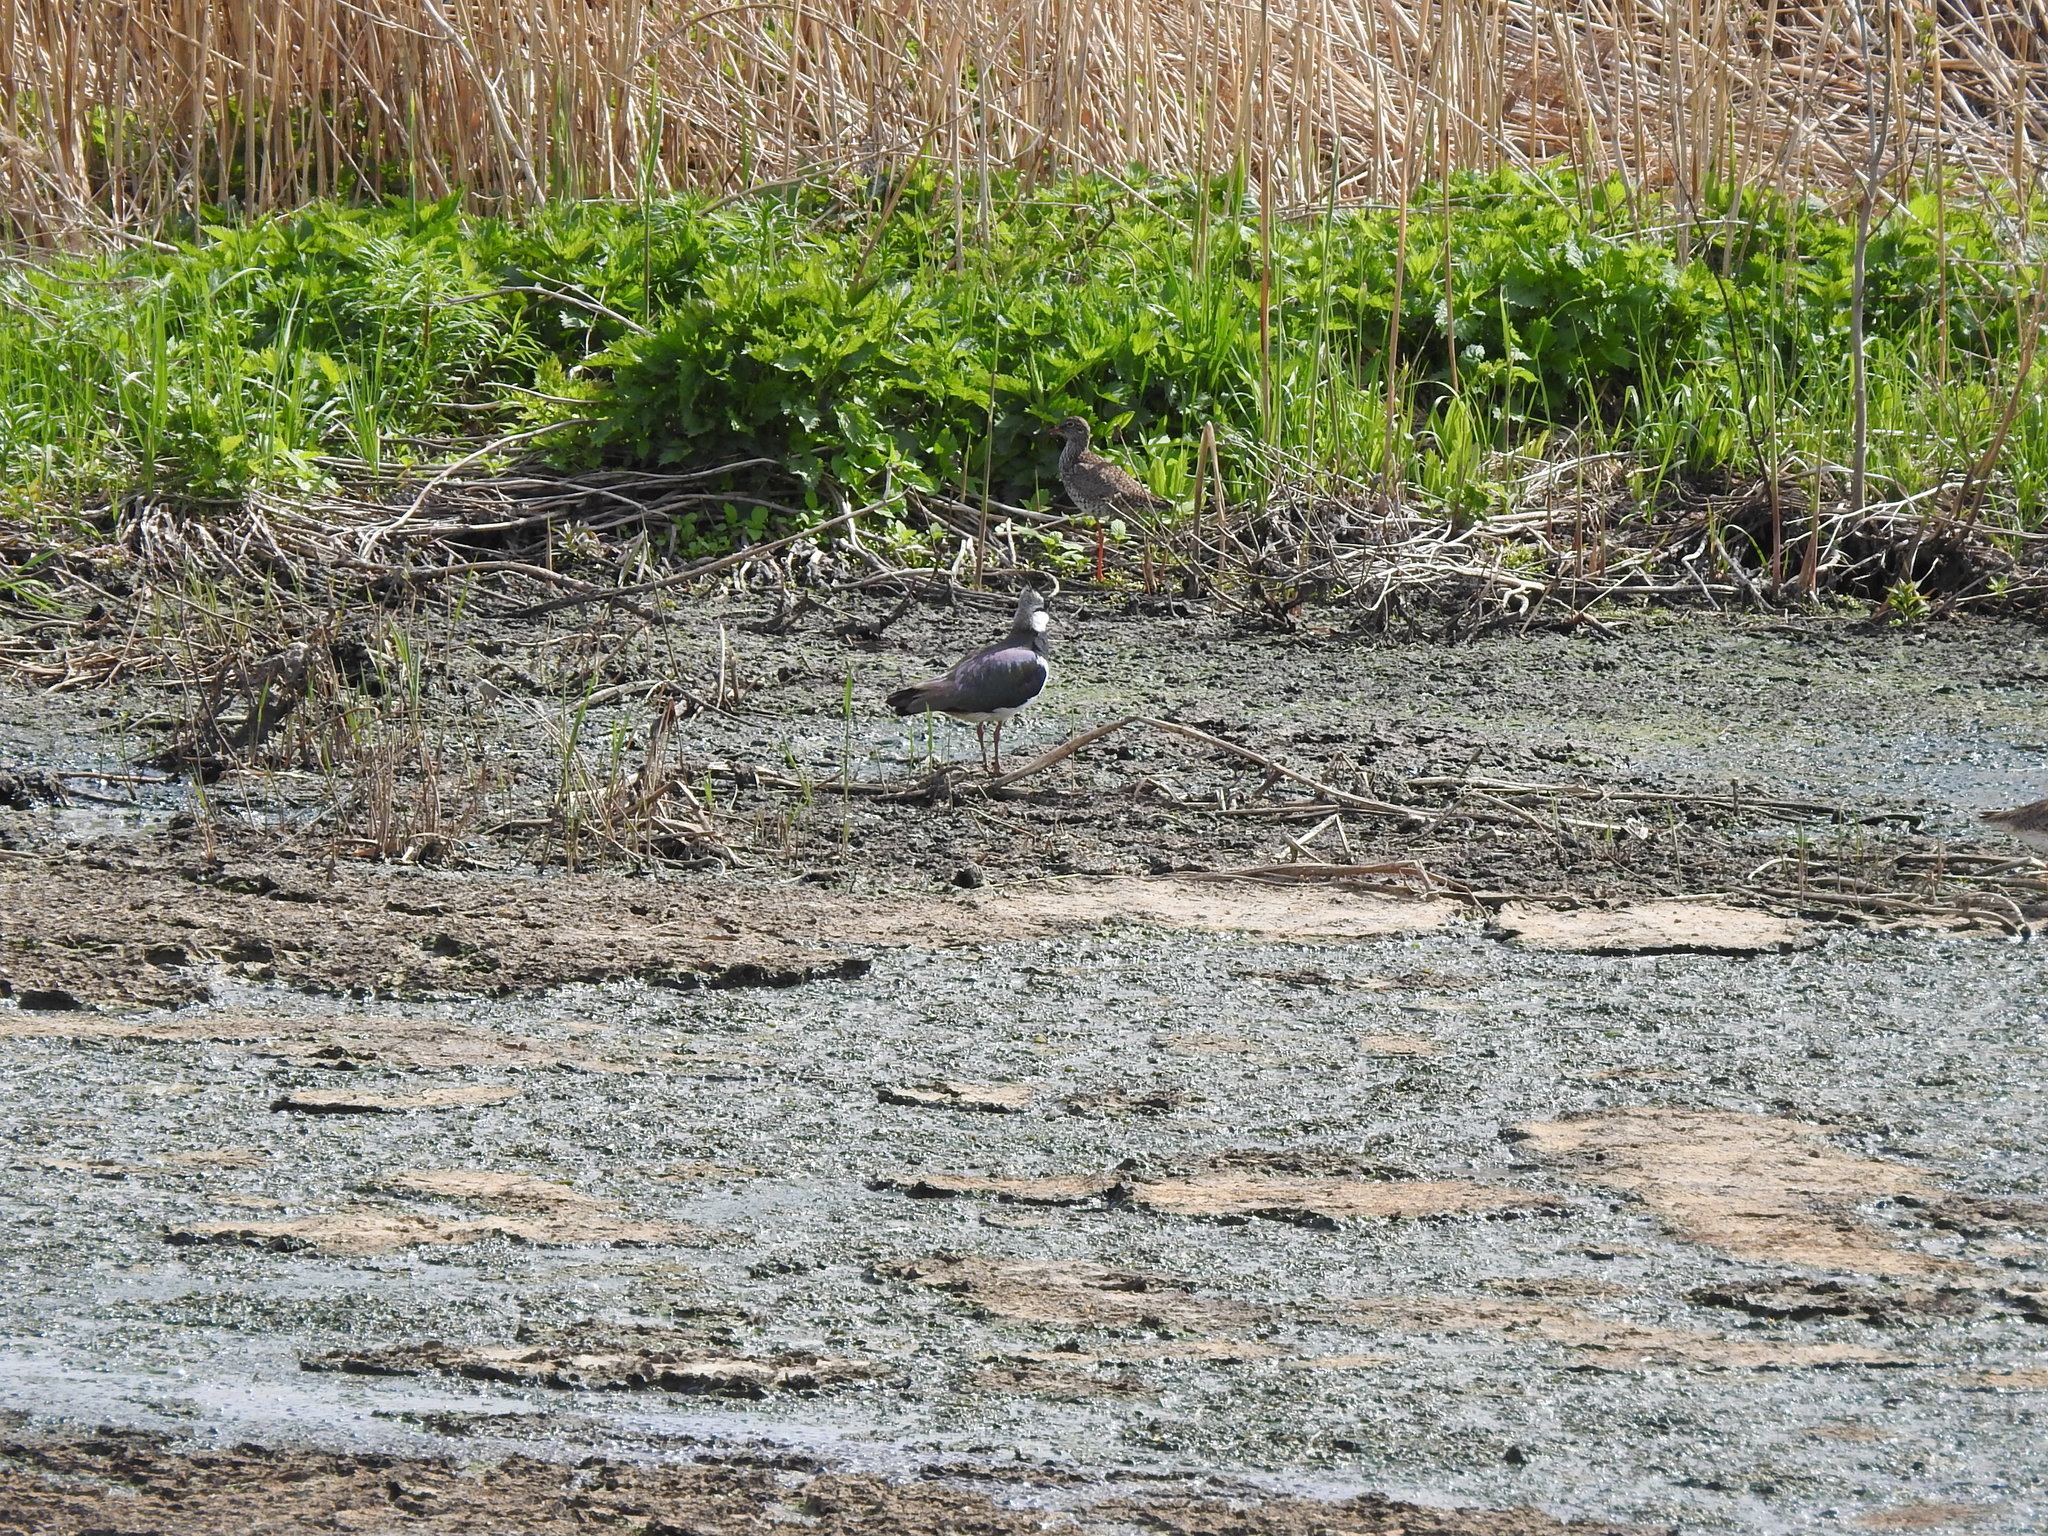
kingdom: Animalia
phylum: Chordata
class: Aves
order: Charadriiformes
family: Charadriidae
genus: Vanellus
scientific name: Vanellus vanellus
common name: Northern lapwing
